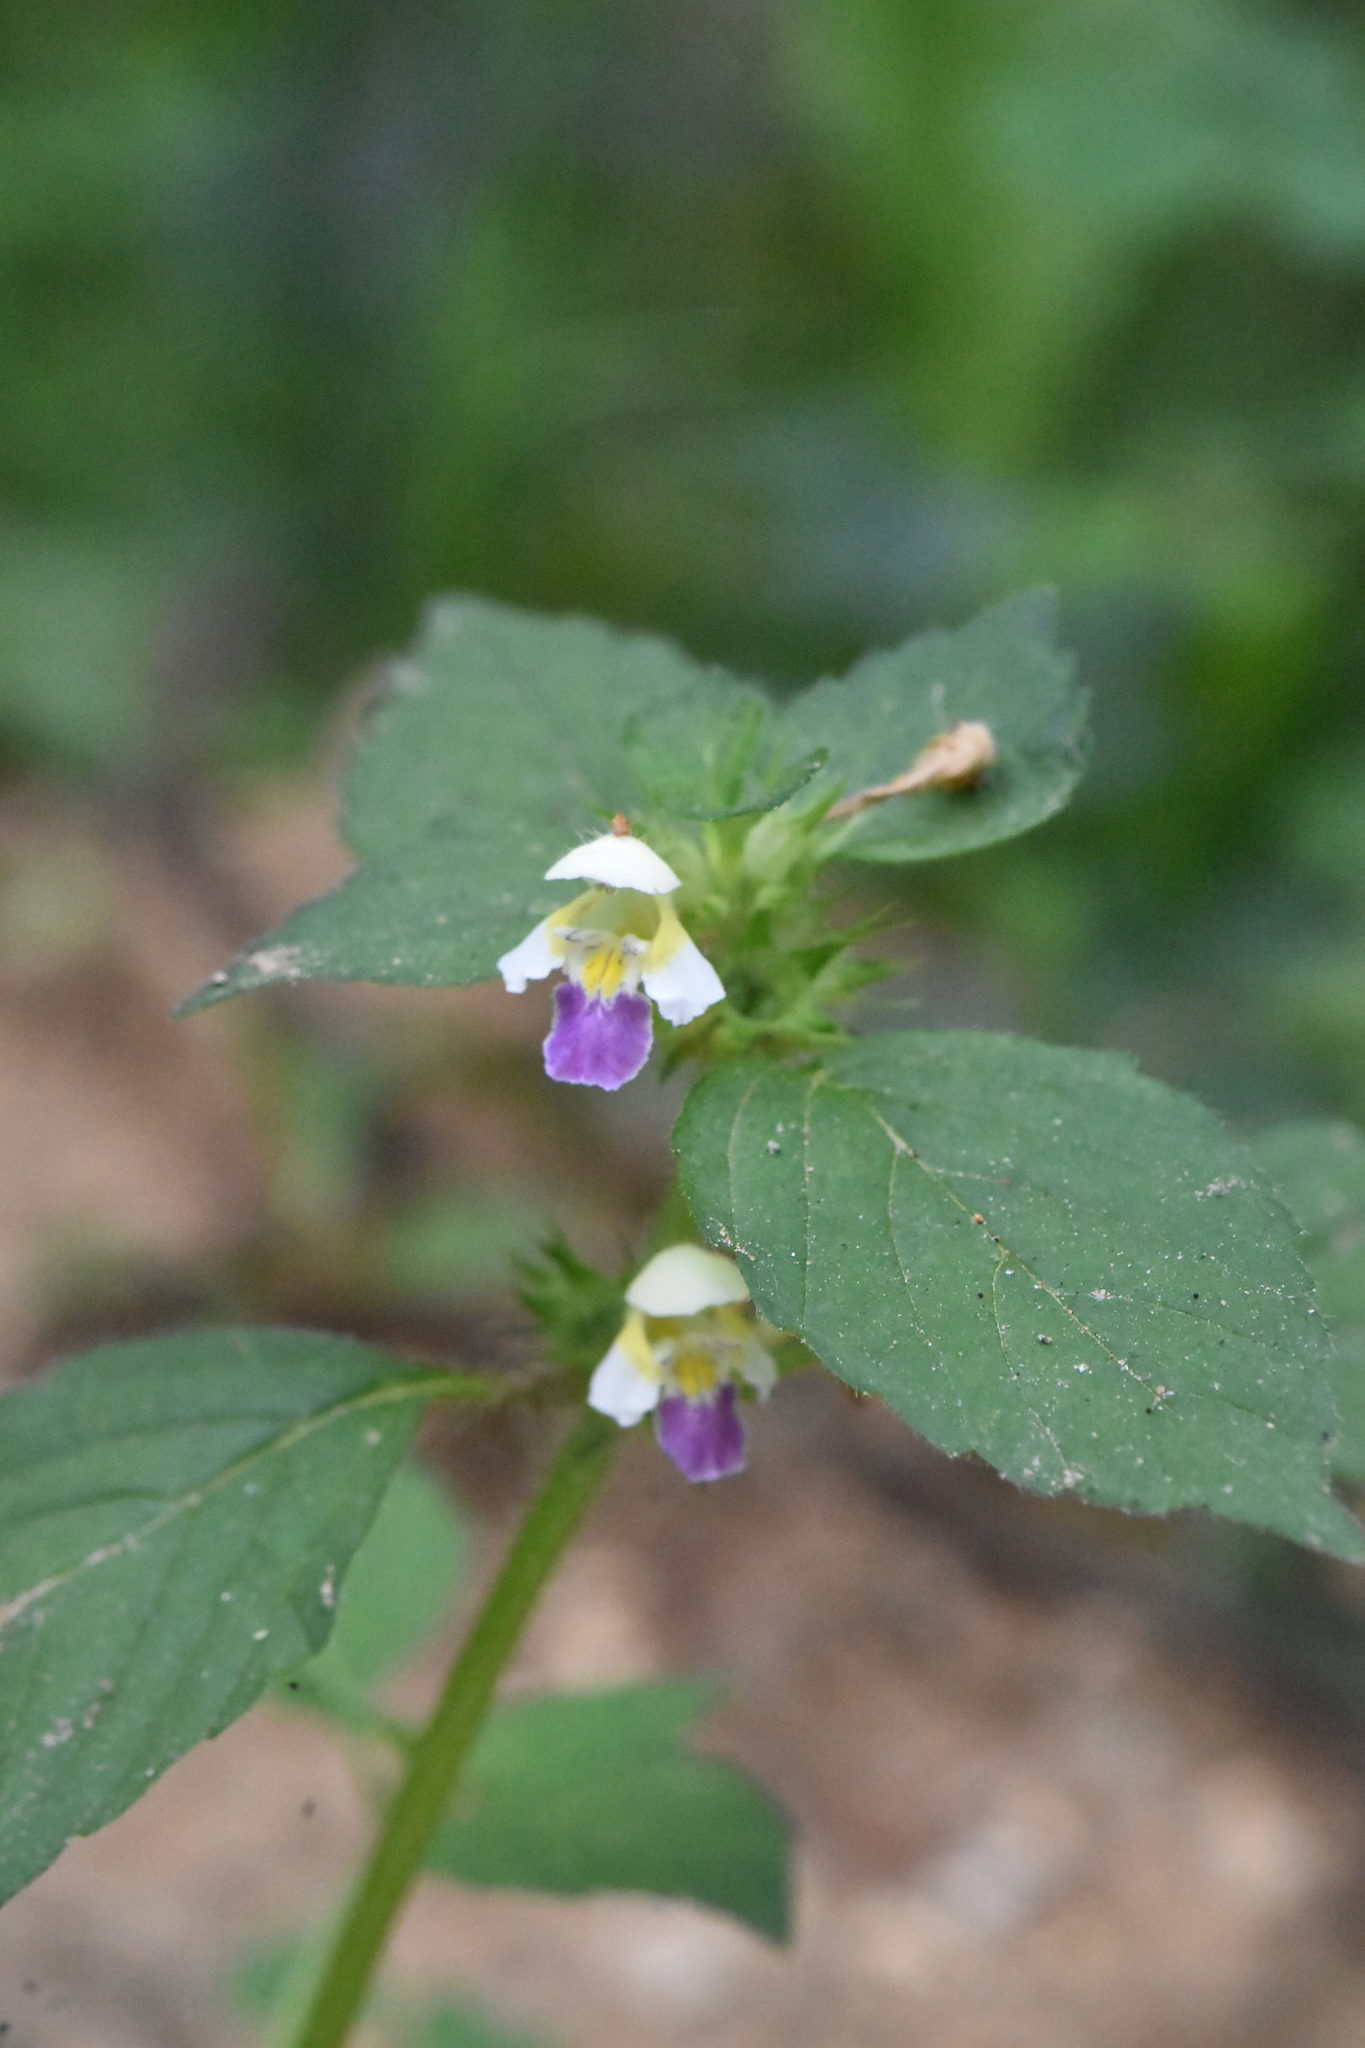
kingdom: Plantae
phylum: Tracheophyta
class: Magnoliopsida
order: Lamiales
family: Lamiaceae
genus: Galeopsis
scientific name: Galeopsis speciosa
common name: Large-flowered hemp-nettle
